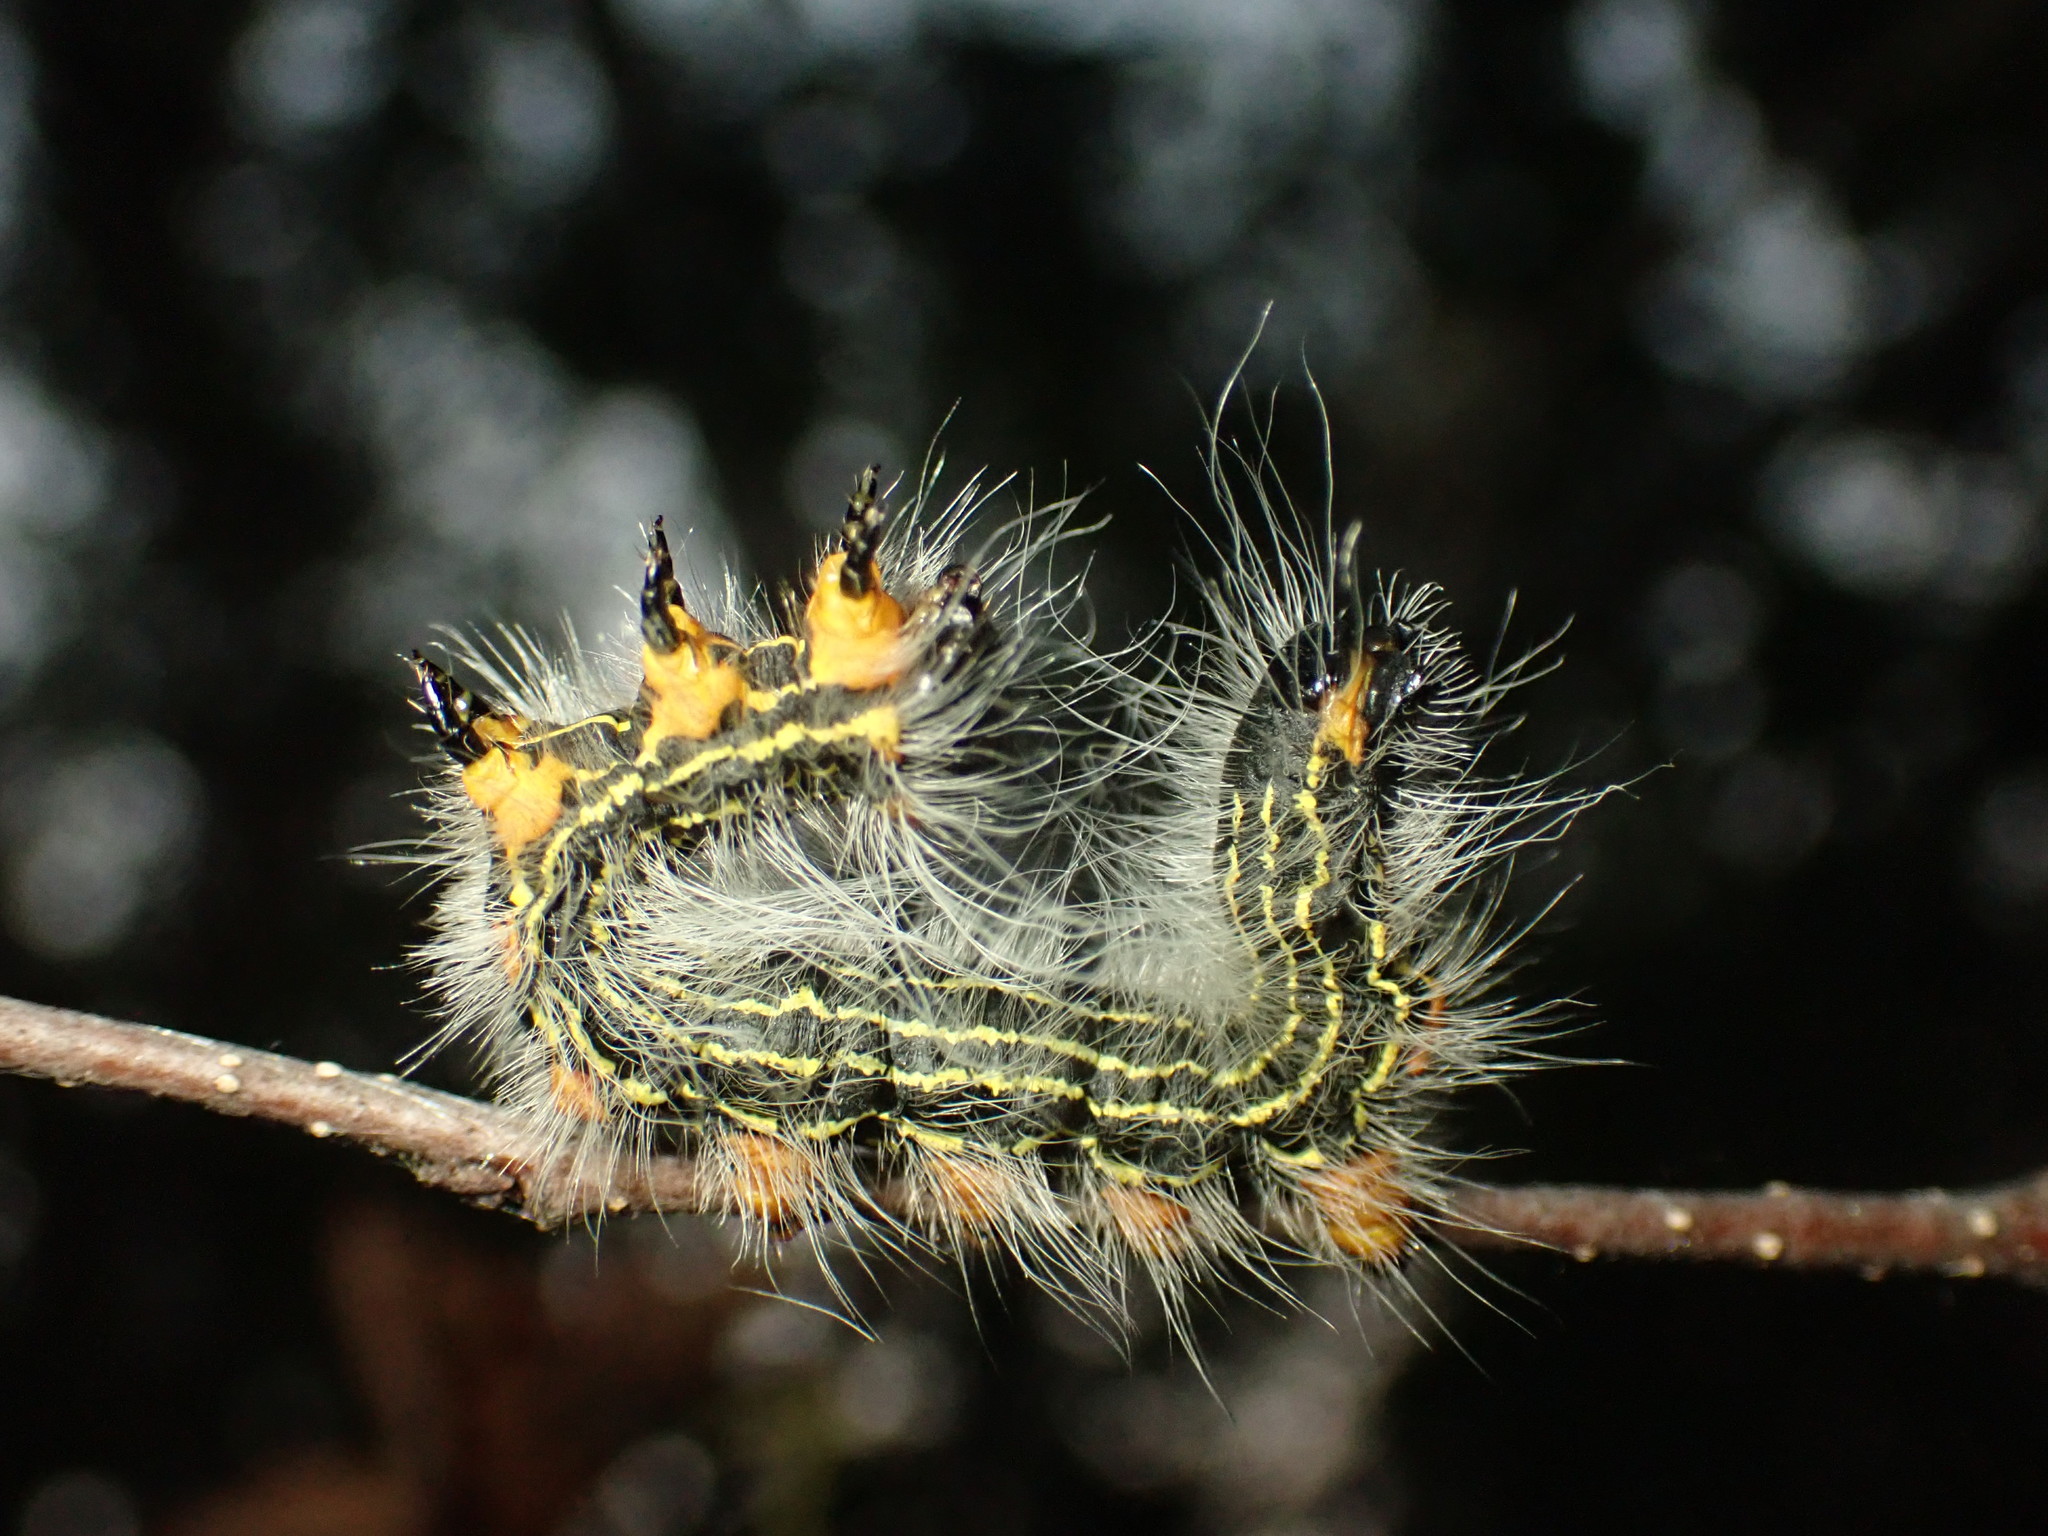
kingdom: Animalia
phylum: Arthropoda
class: Insecta
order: Lepidoptera
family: Notodontidae
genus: Datana
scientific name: Datana ministra
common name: Yellow-necked caterpillar moth
